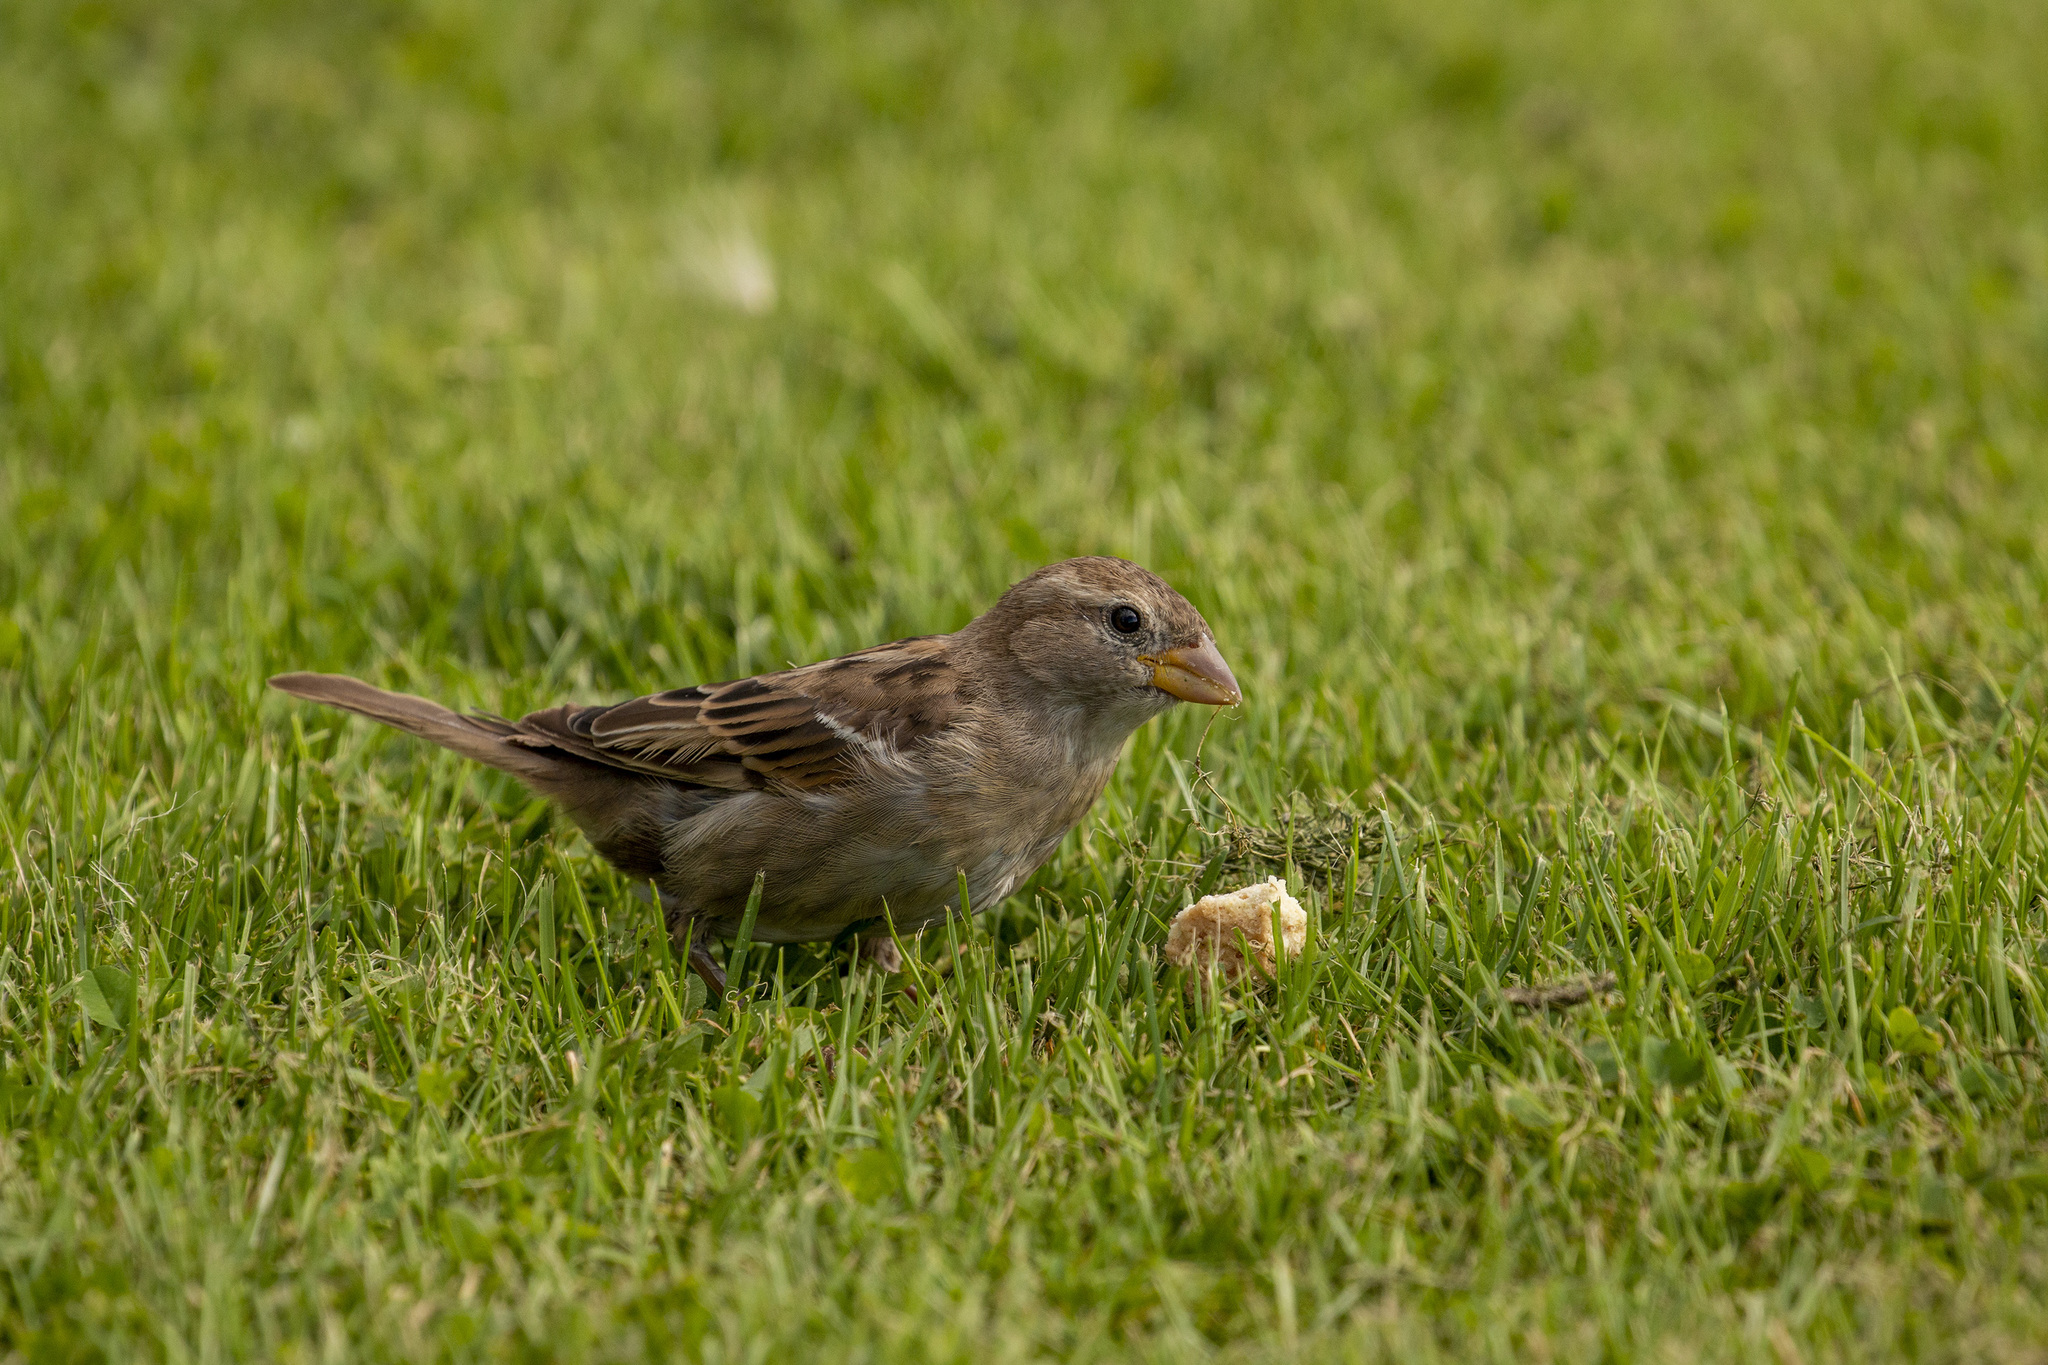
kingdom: Animalia
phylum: Chordata
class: Aves
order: Passeriformes
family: Passeridae
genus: Passer
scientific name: Passer domesticus
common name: House sparrow
